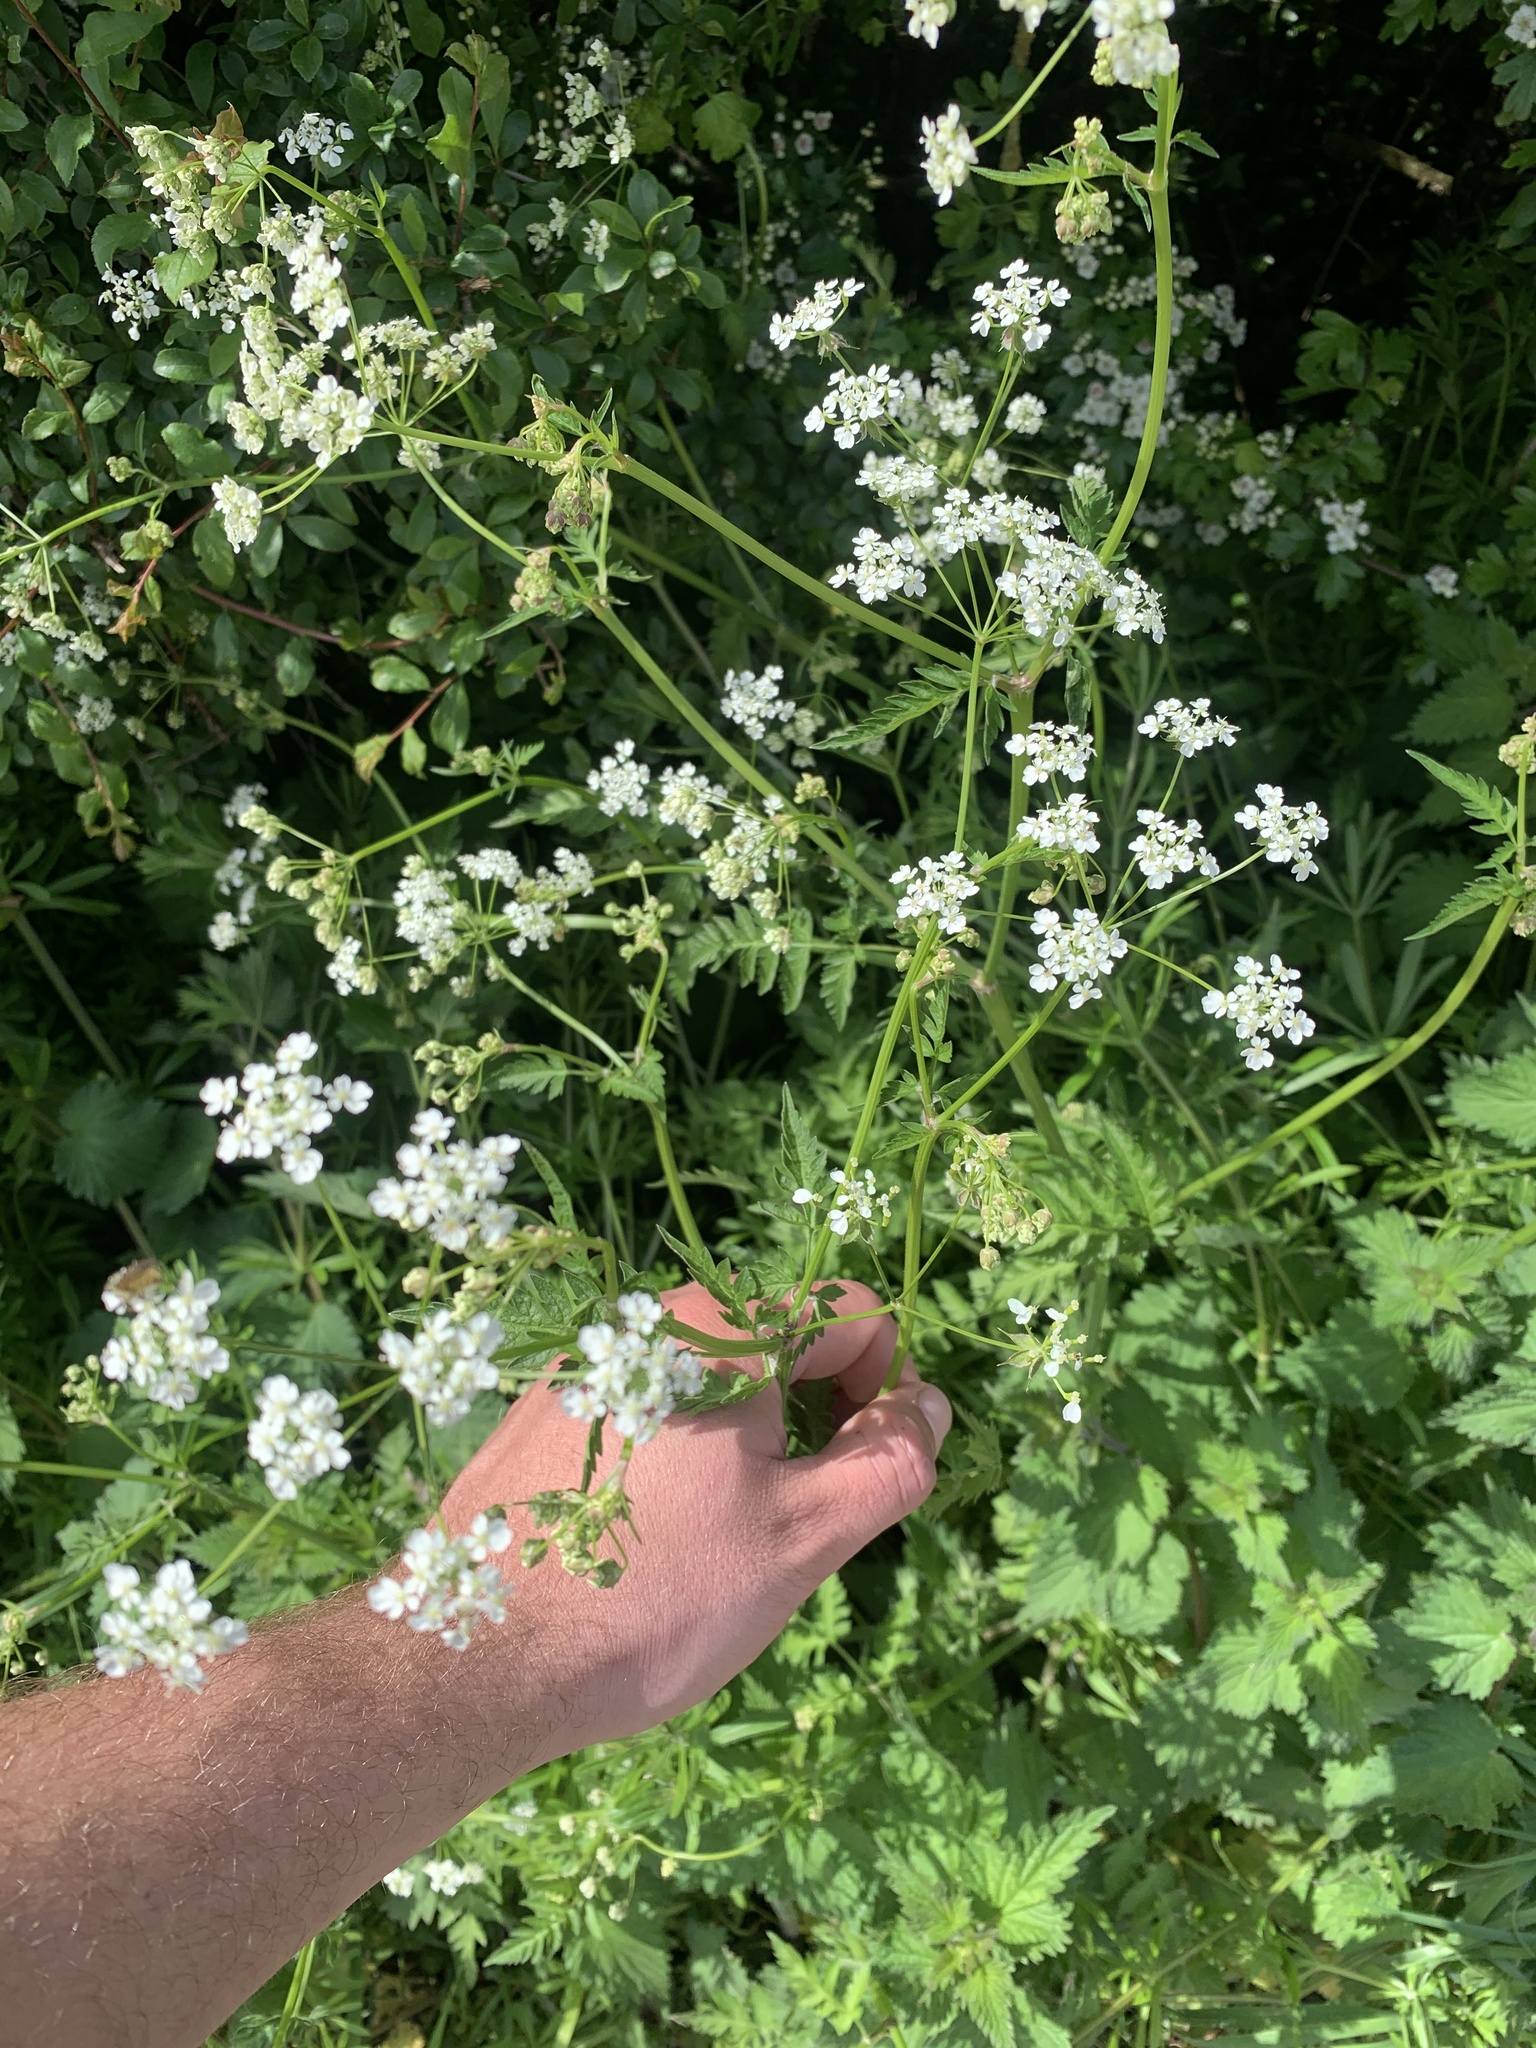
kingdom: Plantae
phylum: Tracheophyta
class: Magnoliopsida
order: Apiales
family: Apiaceae
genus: Anthriscus
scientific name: Anthriscus sylvestris
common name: Cow parsley
